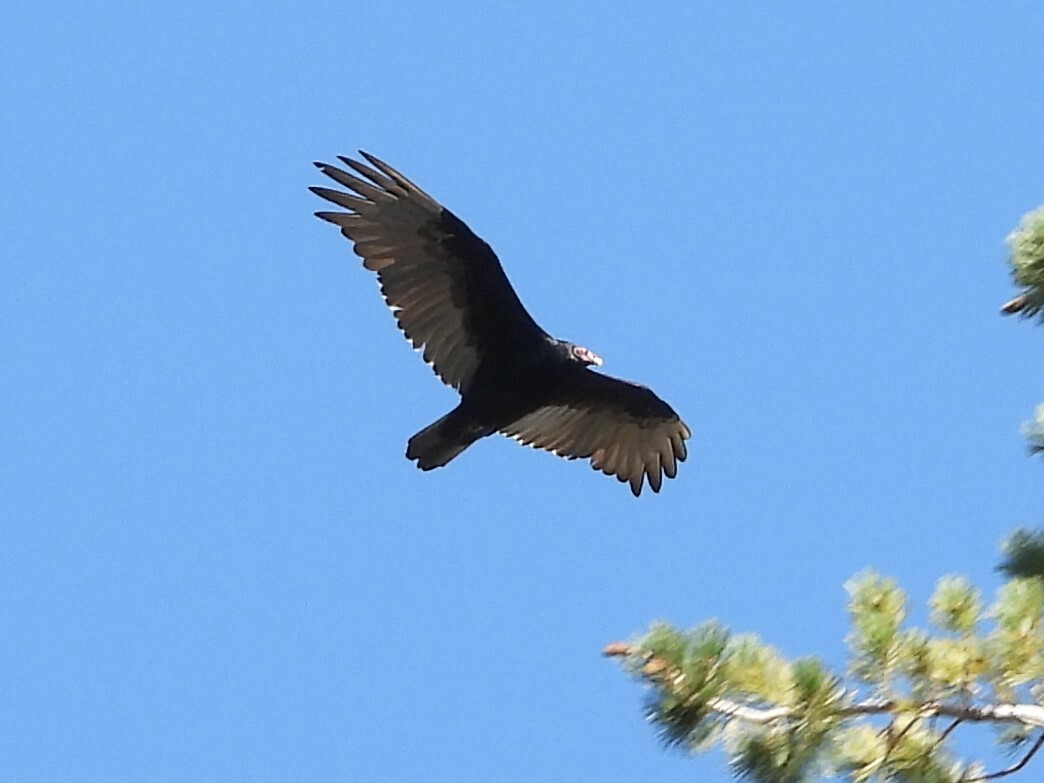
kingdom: Animalia
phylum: Chordata
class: Aves
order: Accipitriformes
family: Cathartidae
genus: Cathartes
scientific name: Cathartes aura
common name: Turkey vulture
